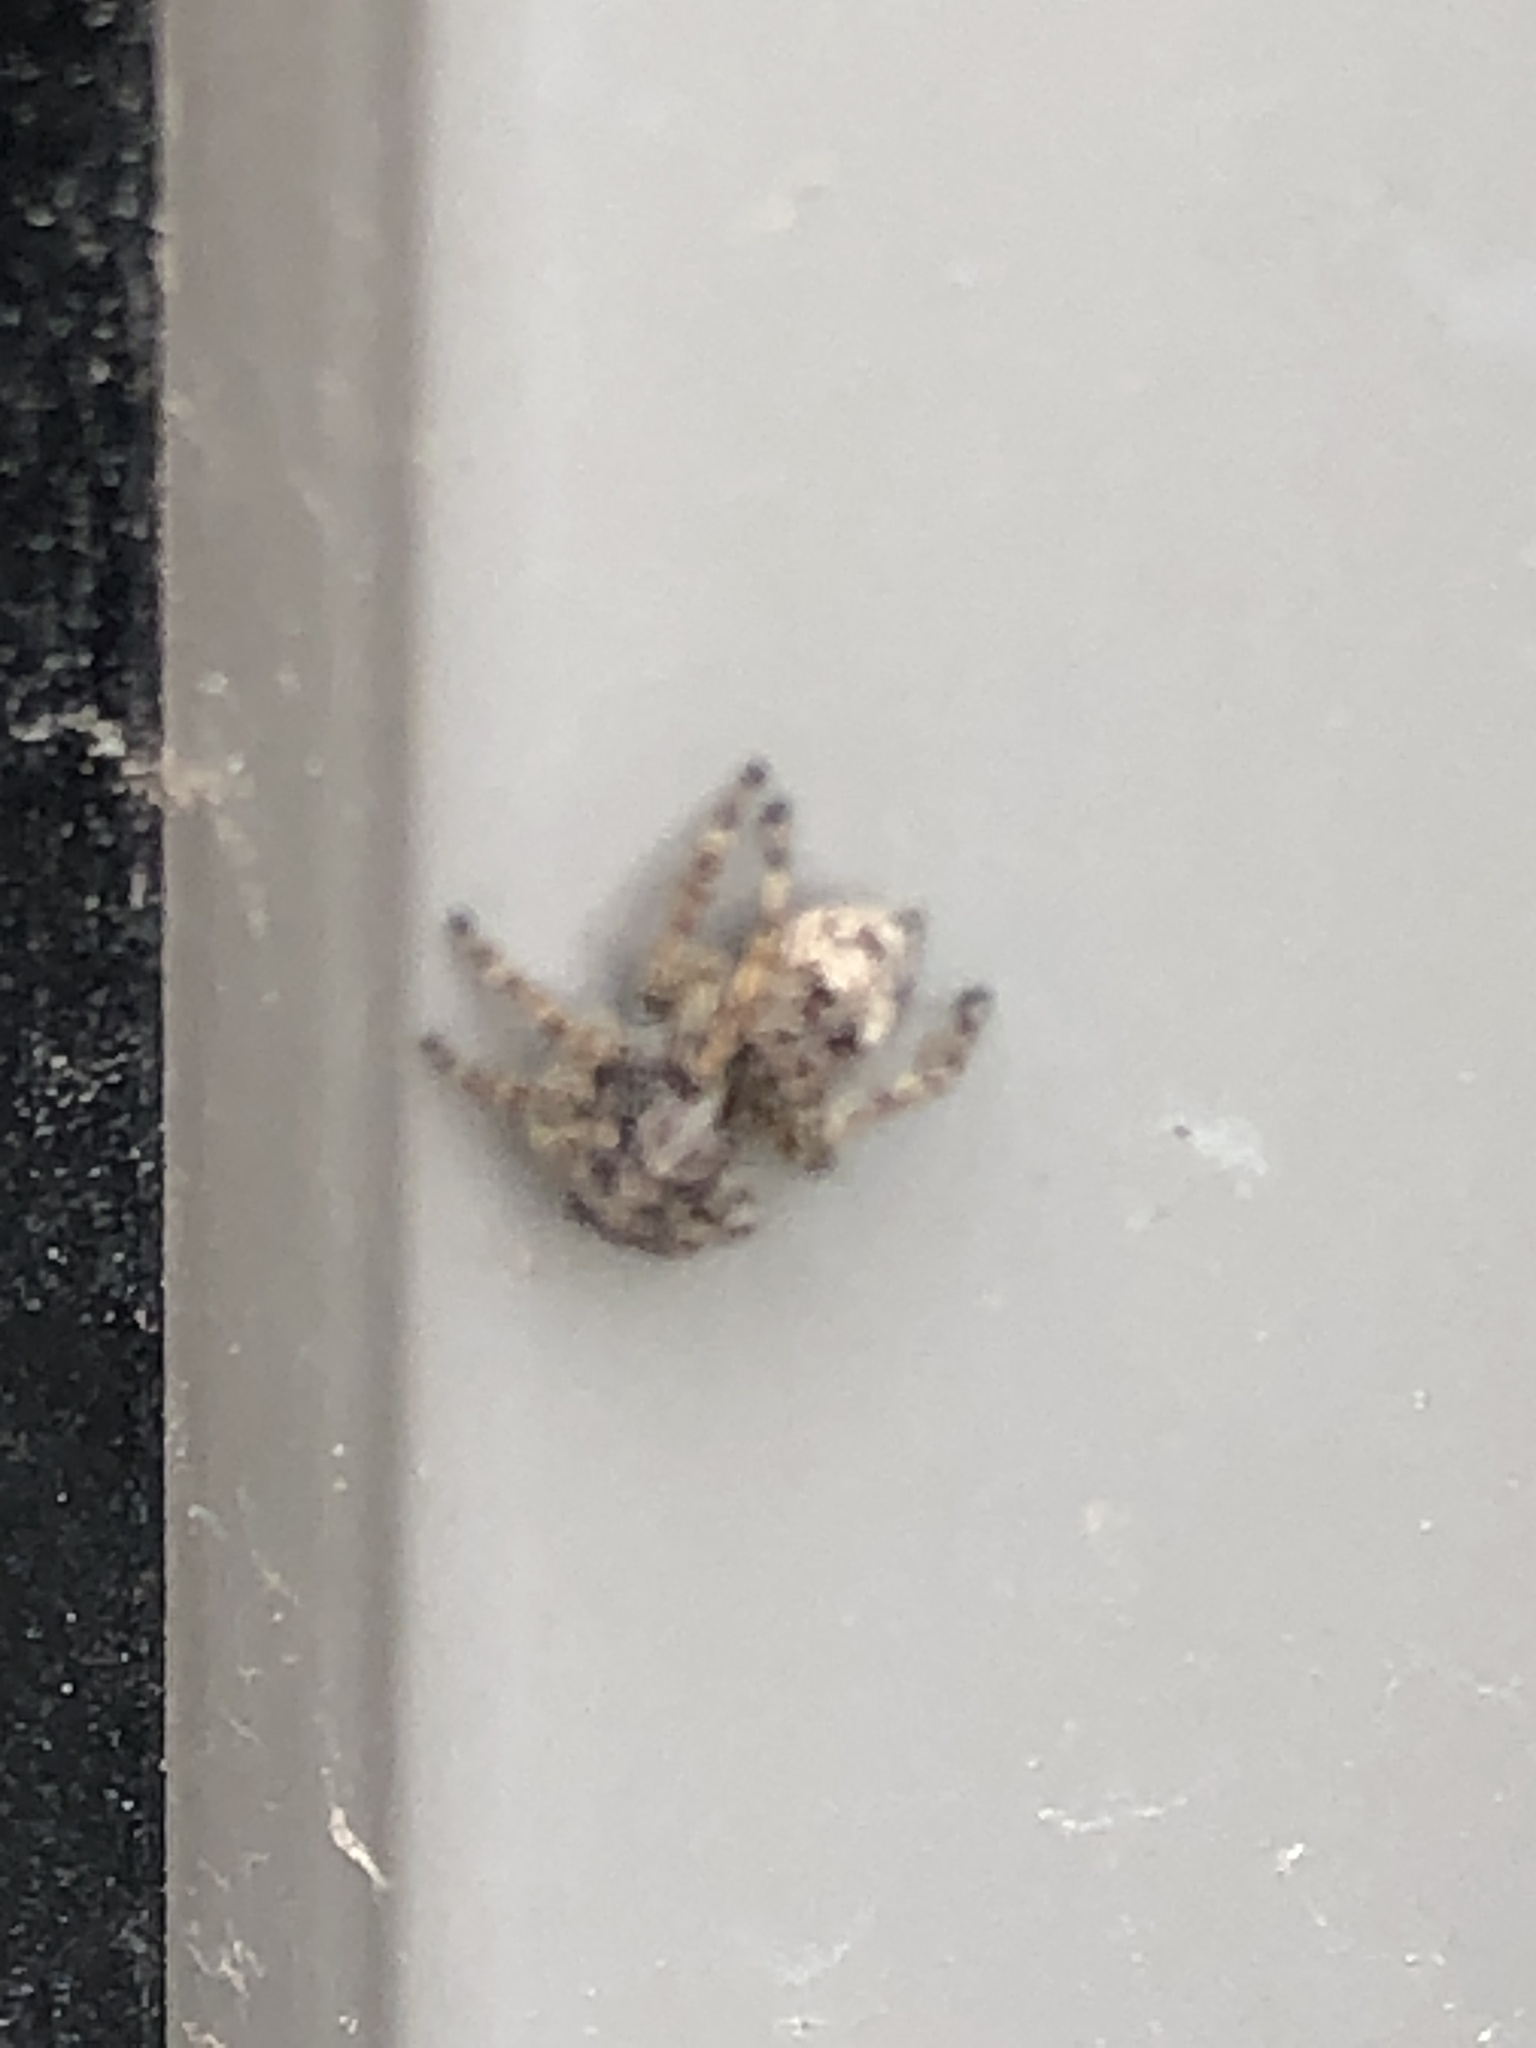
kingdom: Animalia
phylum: Arthropoda
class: Arachnida
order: Araneae
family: Salticidae
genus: Attulus
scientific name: Attulus fasciger
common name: Asiatic wall jumping spider
